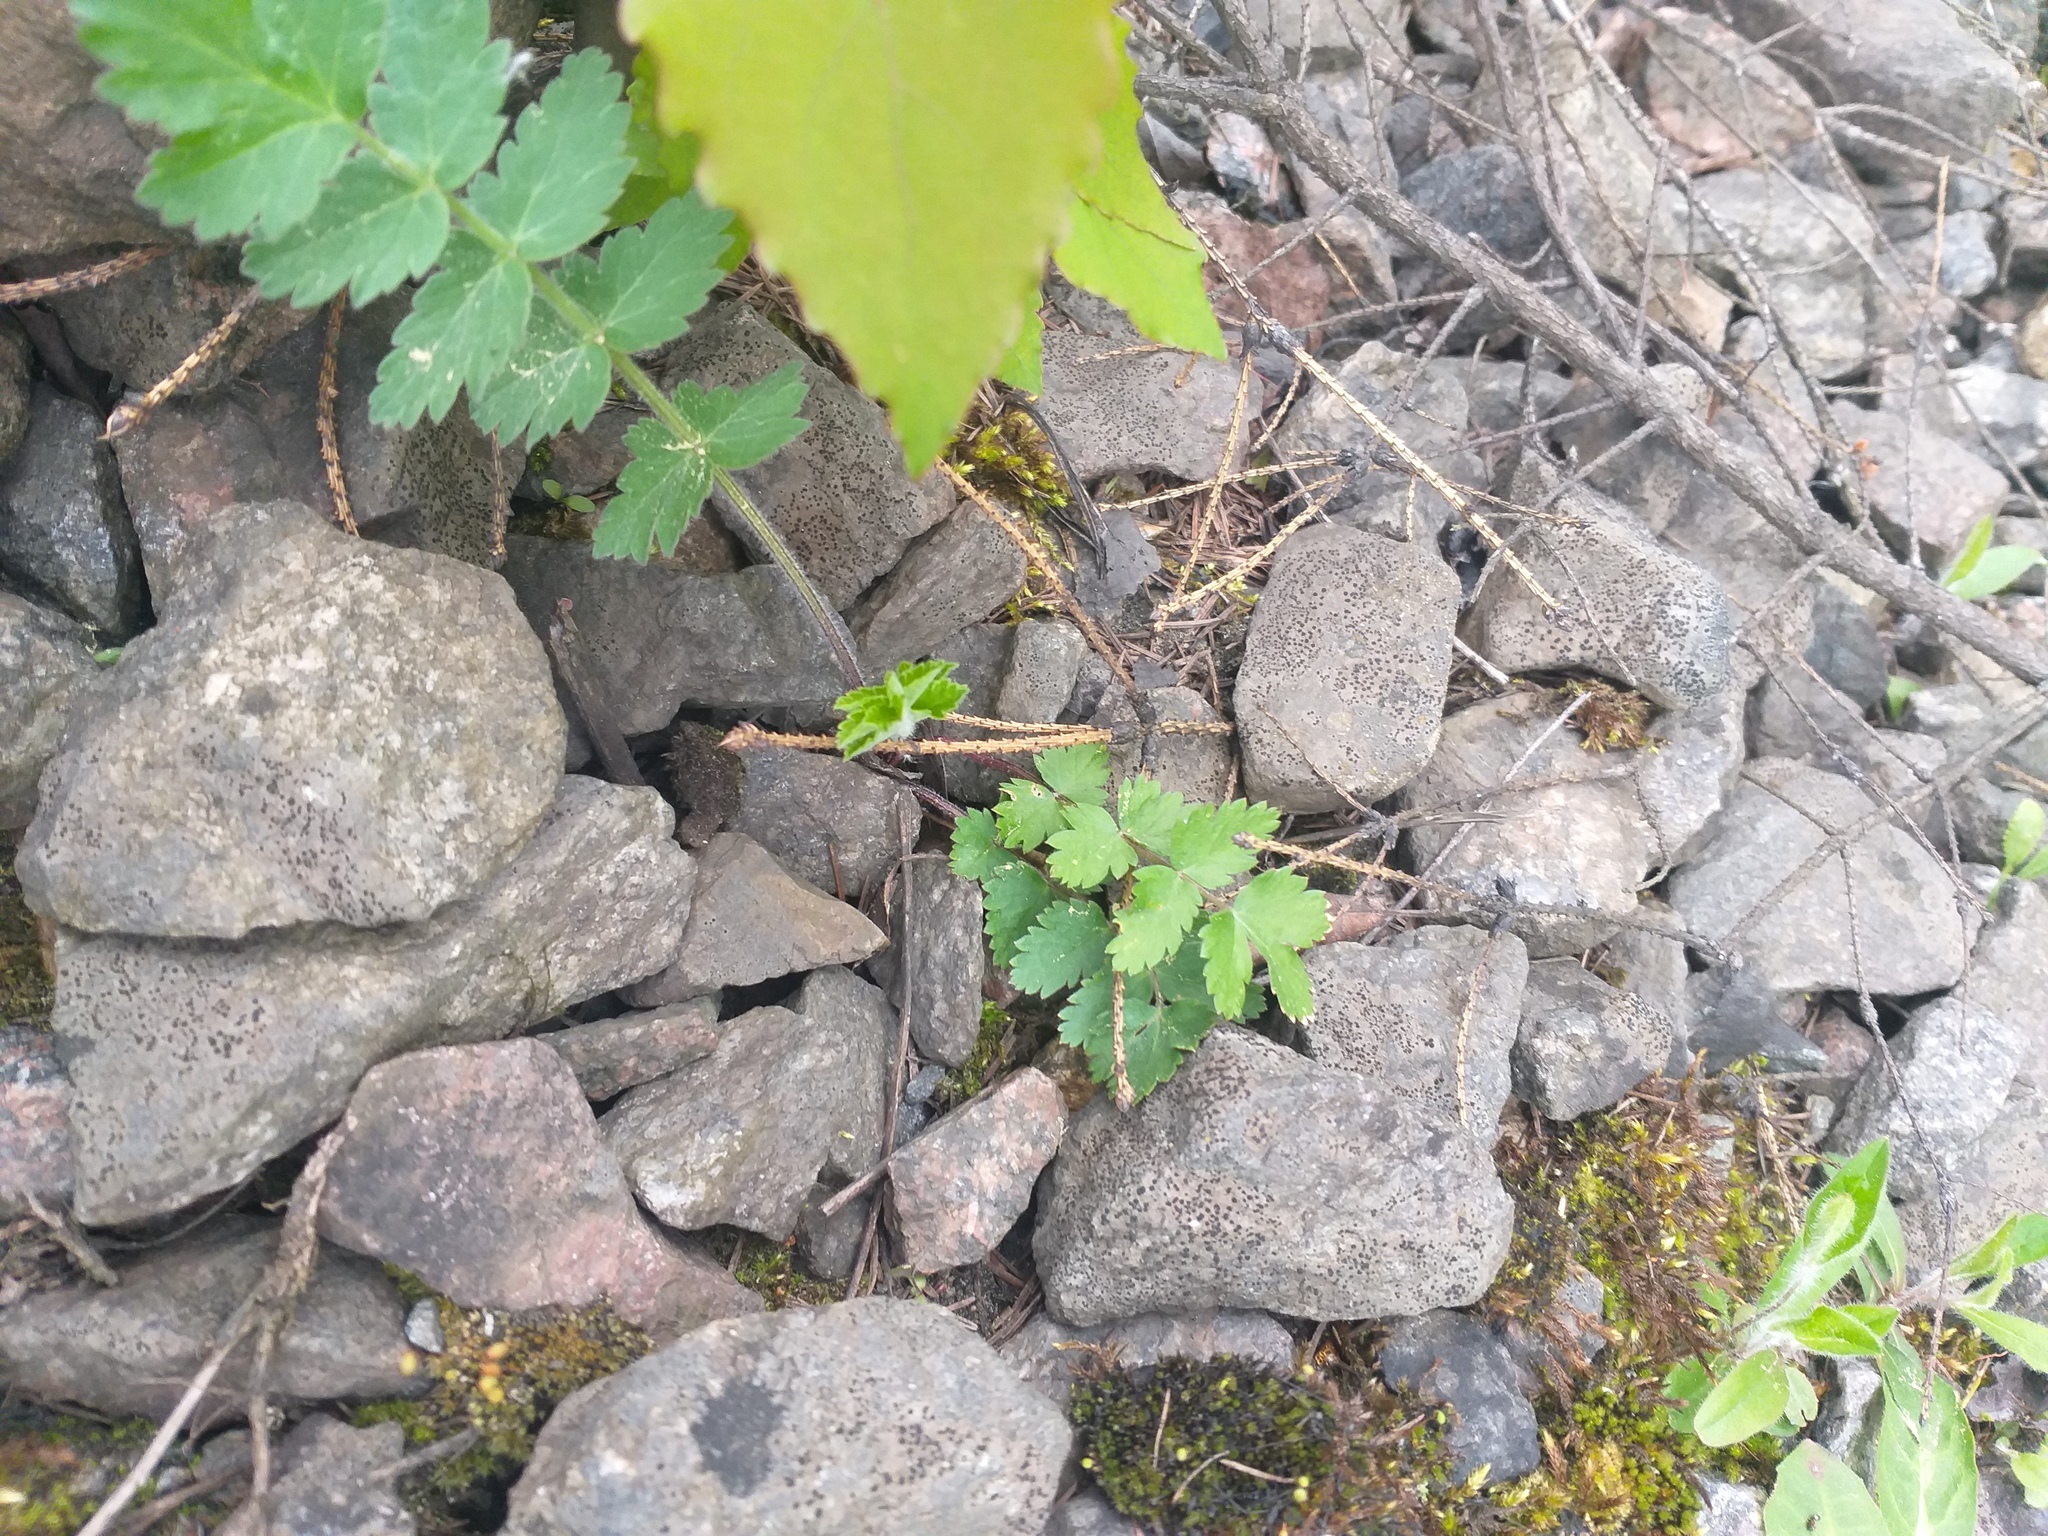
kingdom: Plantae
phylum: Tracheophyta
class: Magnoliopsida
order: Apiales
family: Apiaceae
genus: Pimpinella
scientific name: Pimpinella saxifraga
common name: Burnet-saxifrage
